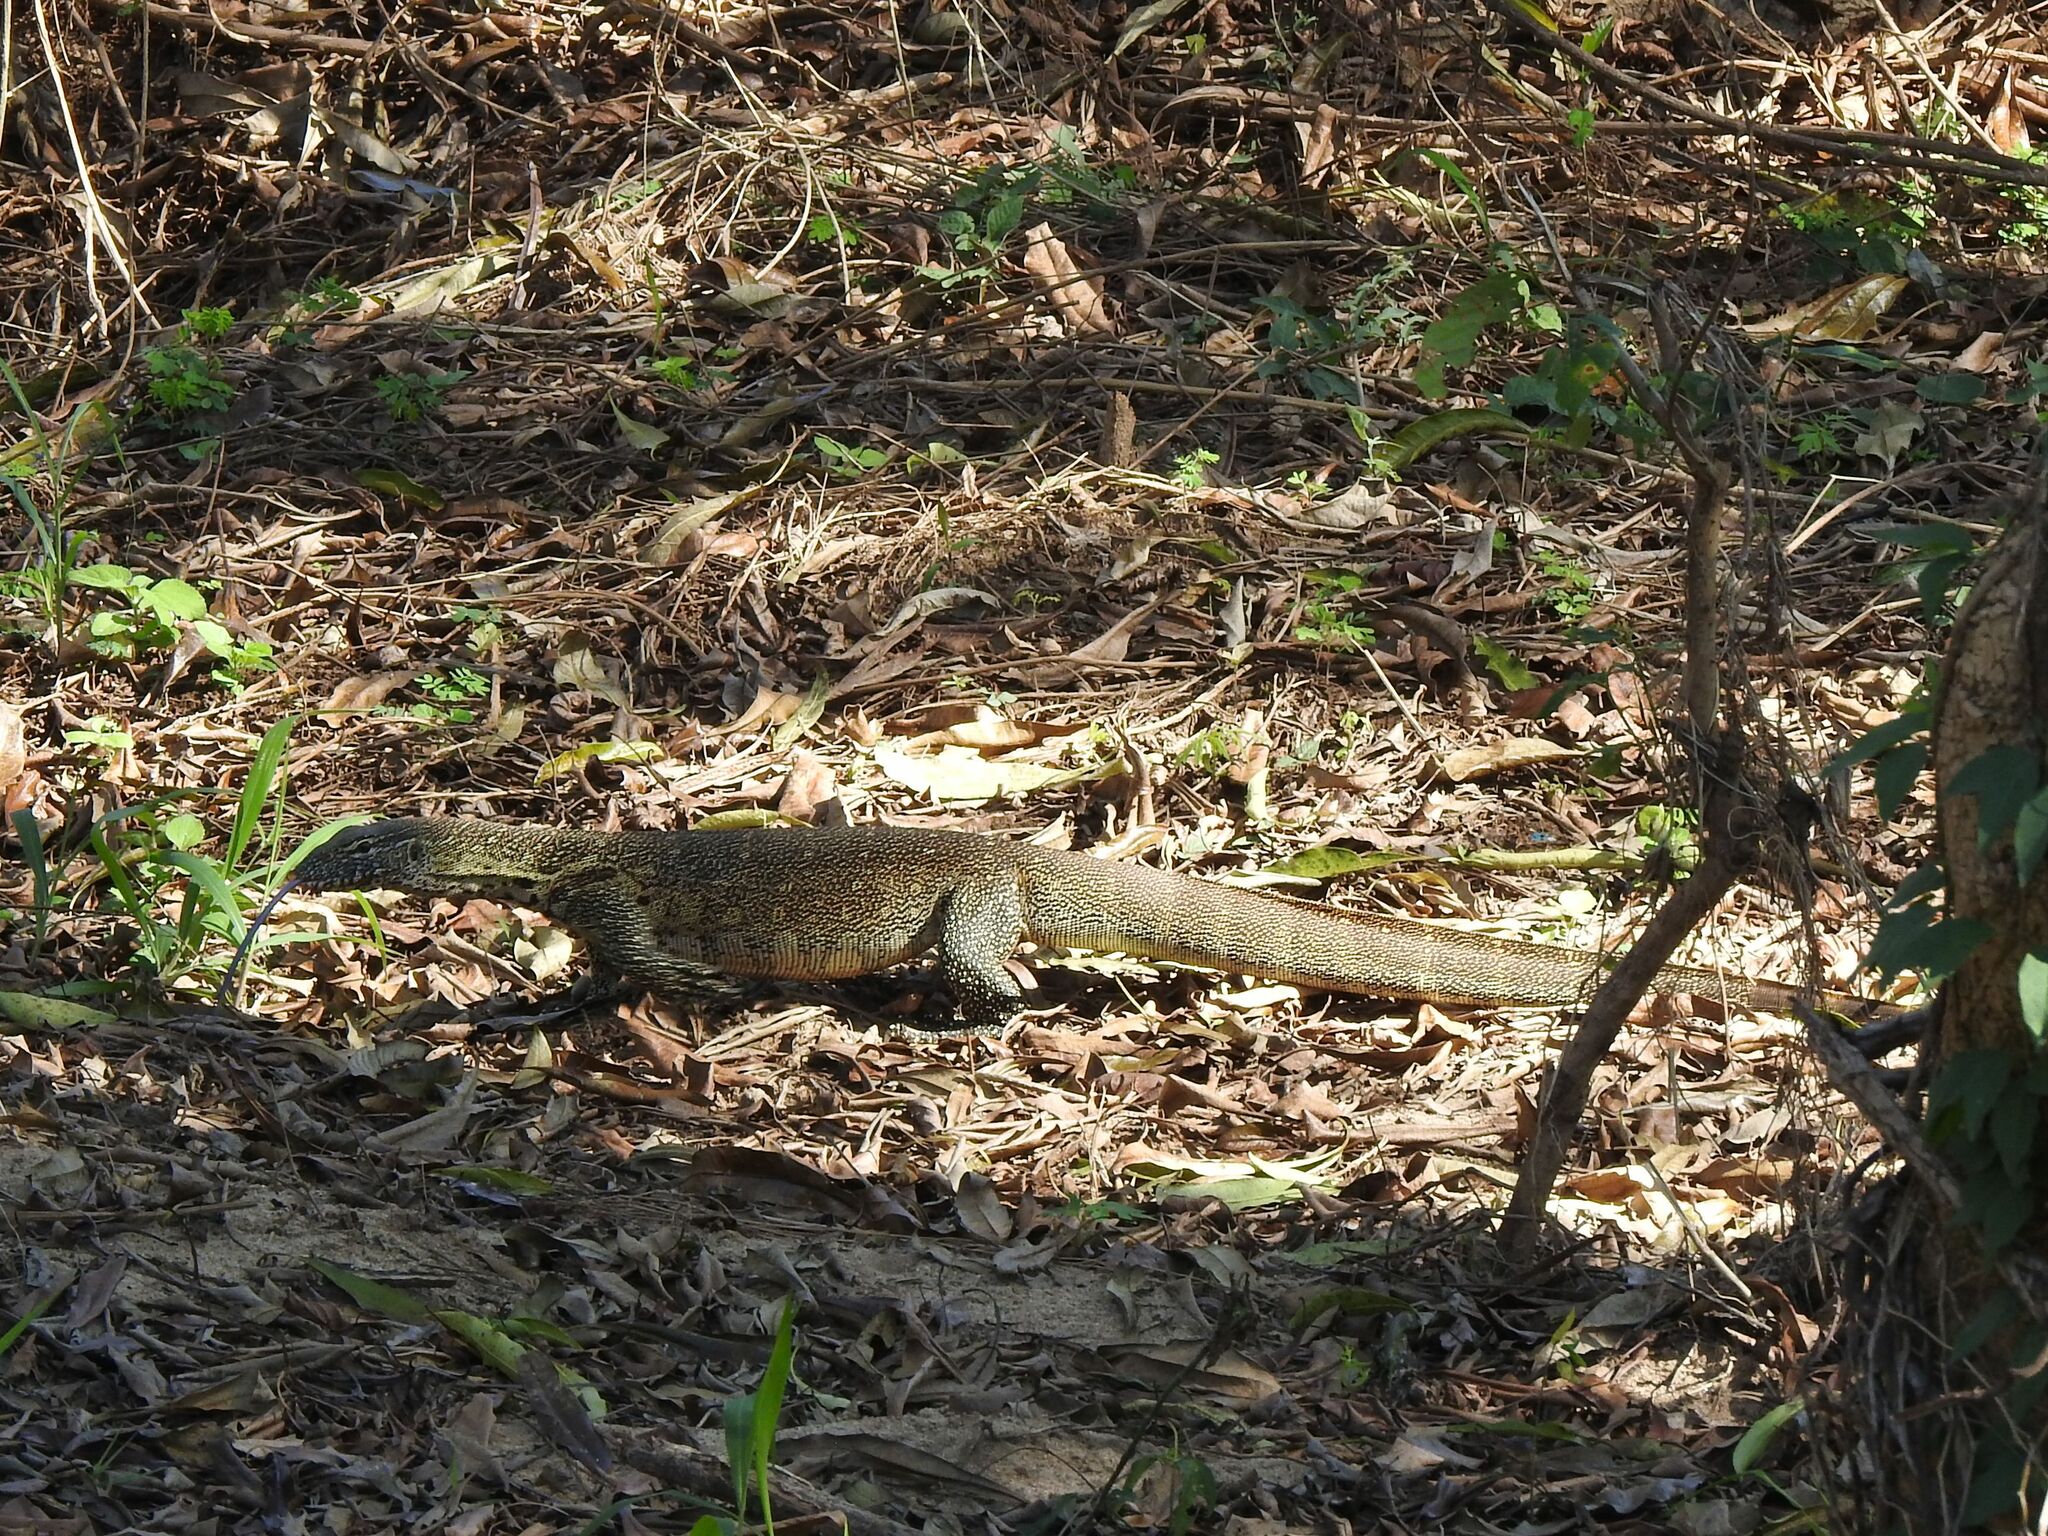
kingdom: Animalia
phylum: Chordata
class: Squamata
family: Varanidae
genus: Varanus
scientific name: Varanus niloticus
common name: Nile monitor
